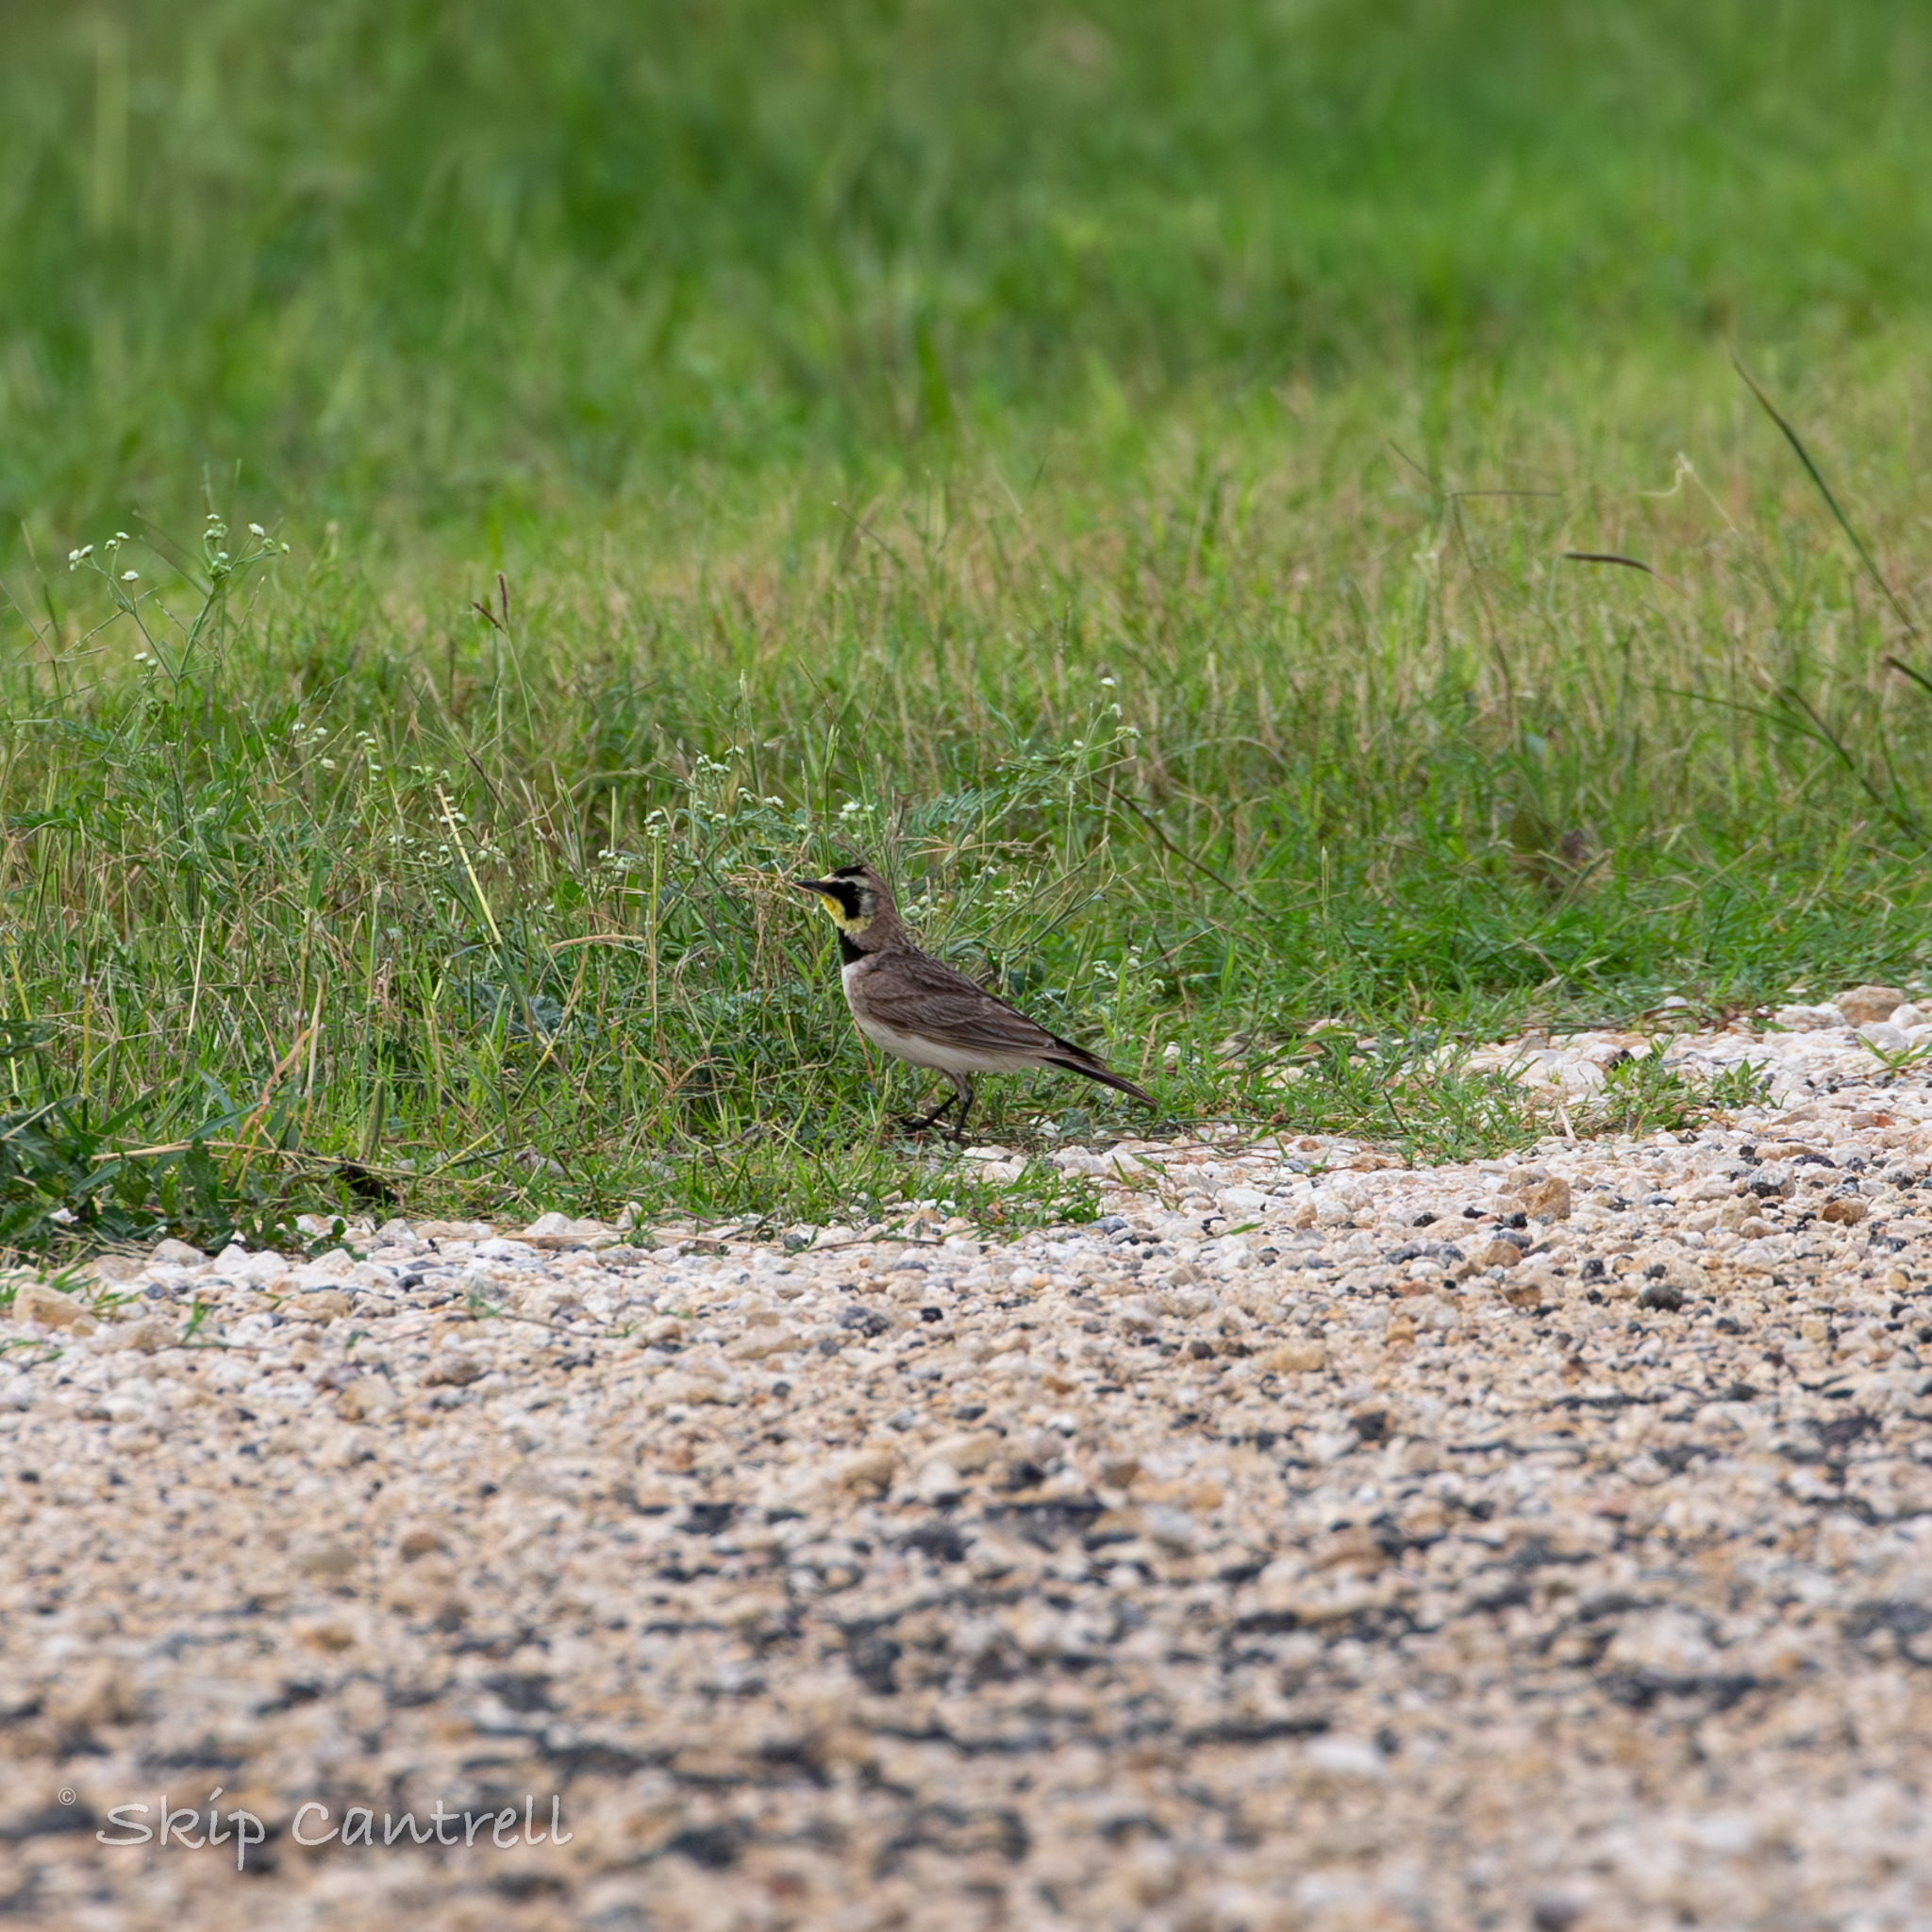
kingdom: Animalia
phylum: Chordata
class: Aves
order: Passeriformes
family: Alaudidae
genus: Eremophila
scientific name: Eremophila alpestris
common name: Horned lark
